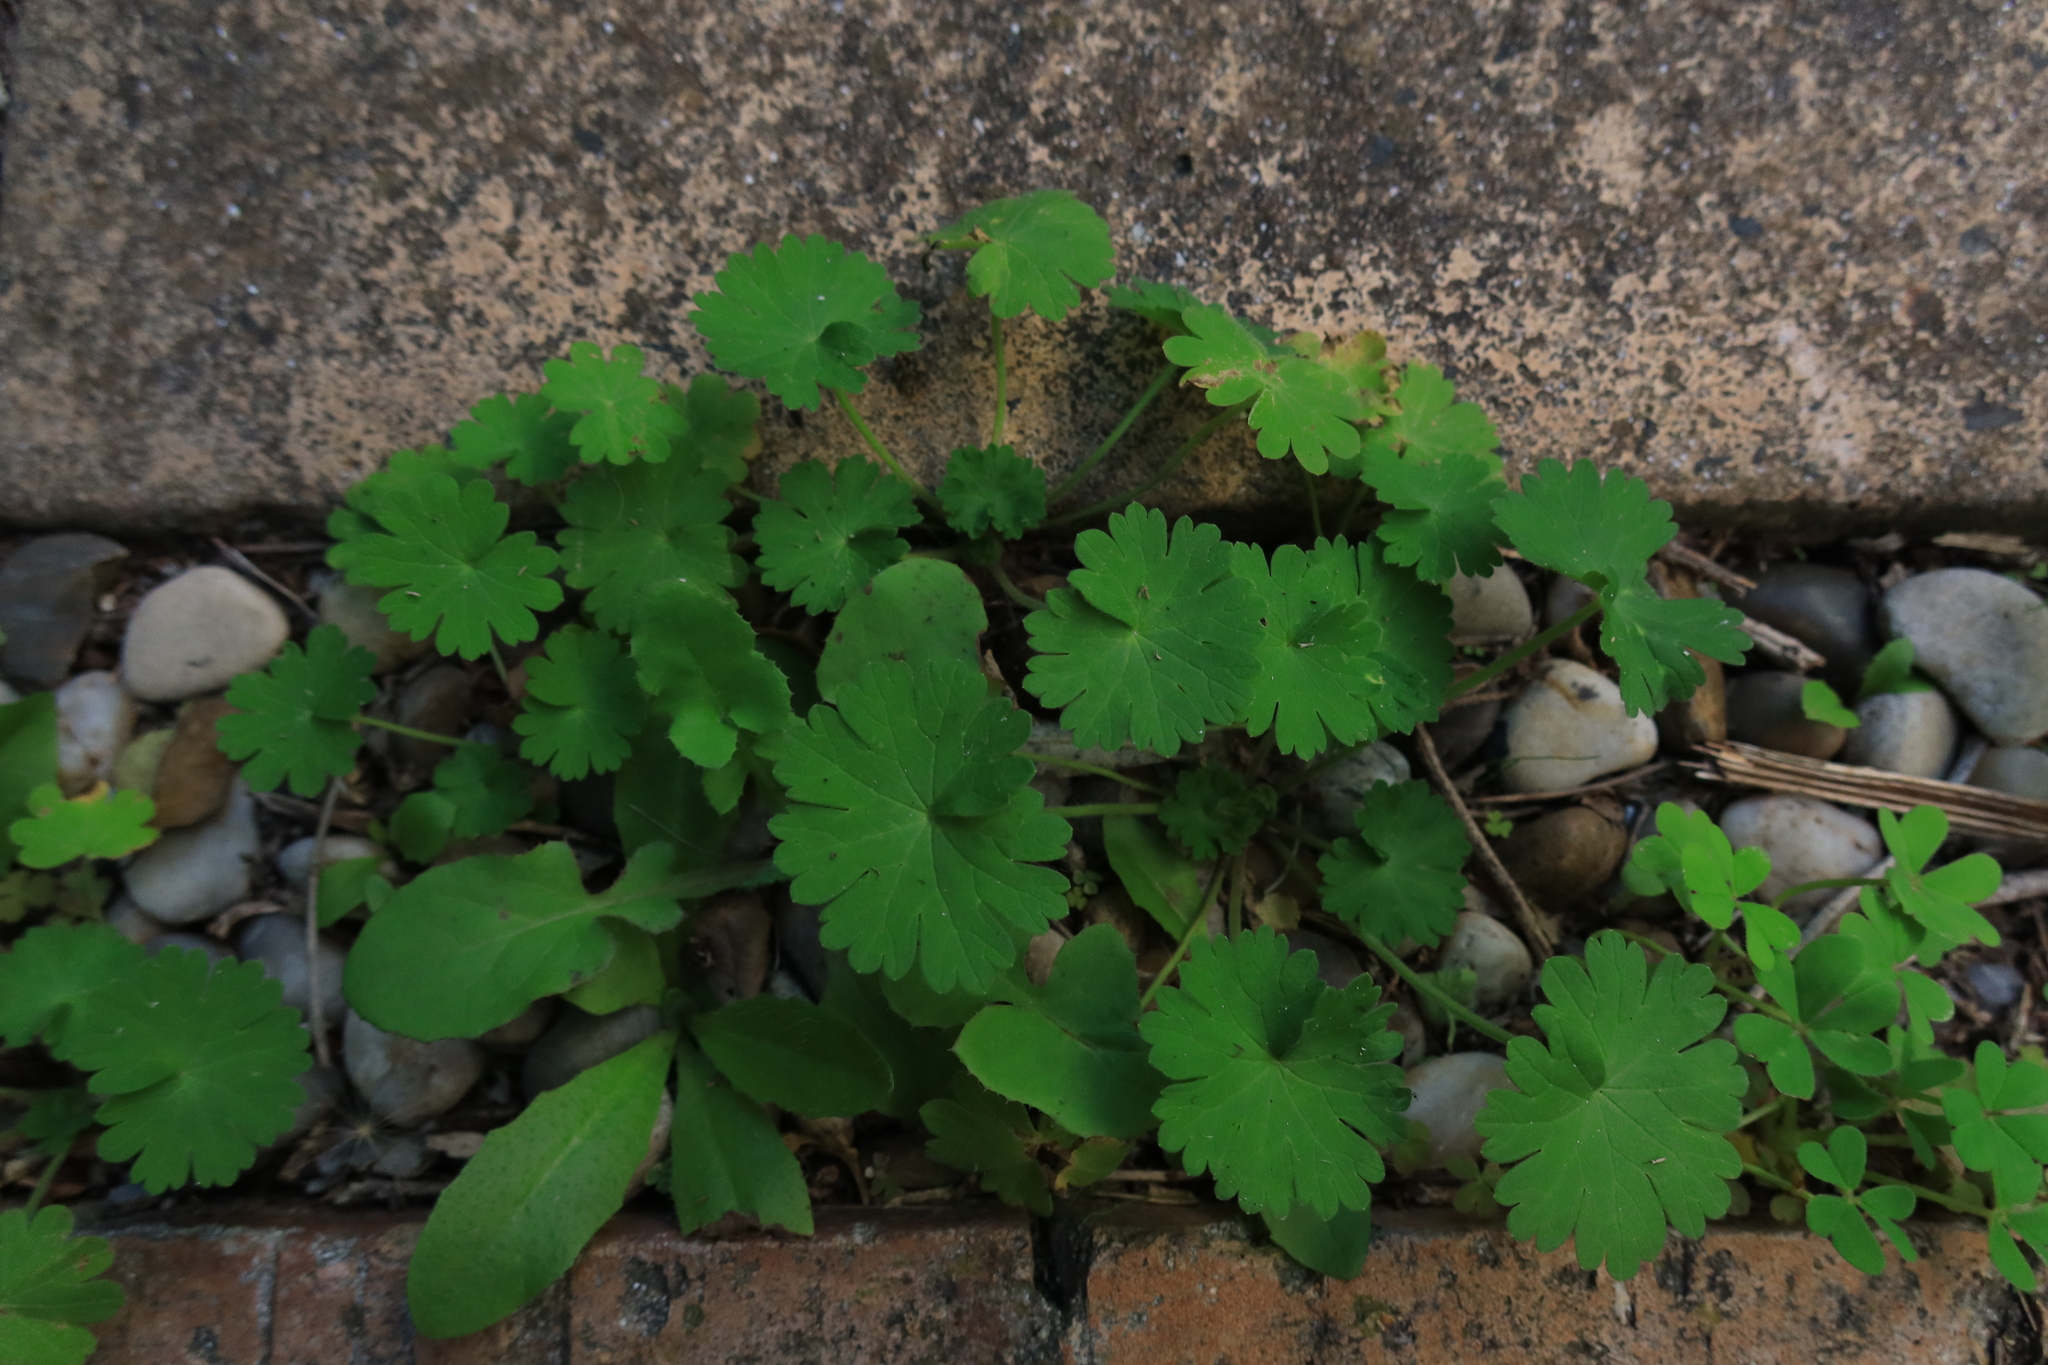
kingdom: Plantae
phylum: Tracheophyta
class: Magnoliopsida
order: Geraniales
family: Geraniaceae
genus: Geranium
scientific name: Geranium molle
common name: Dove's-foot crane's-bill
